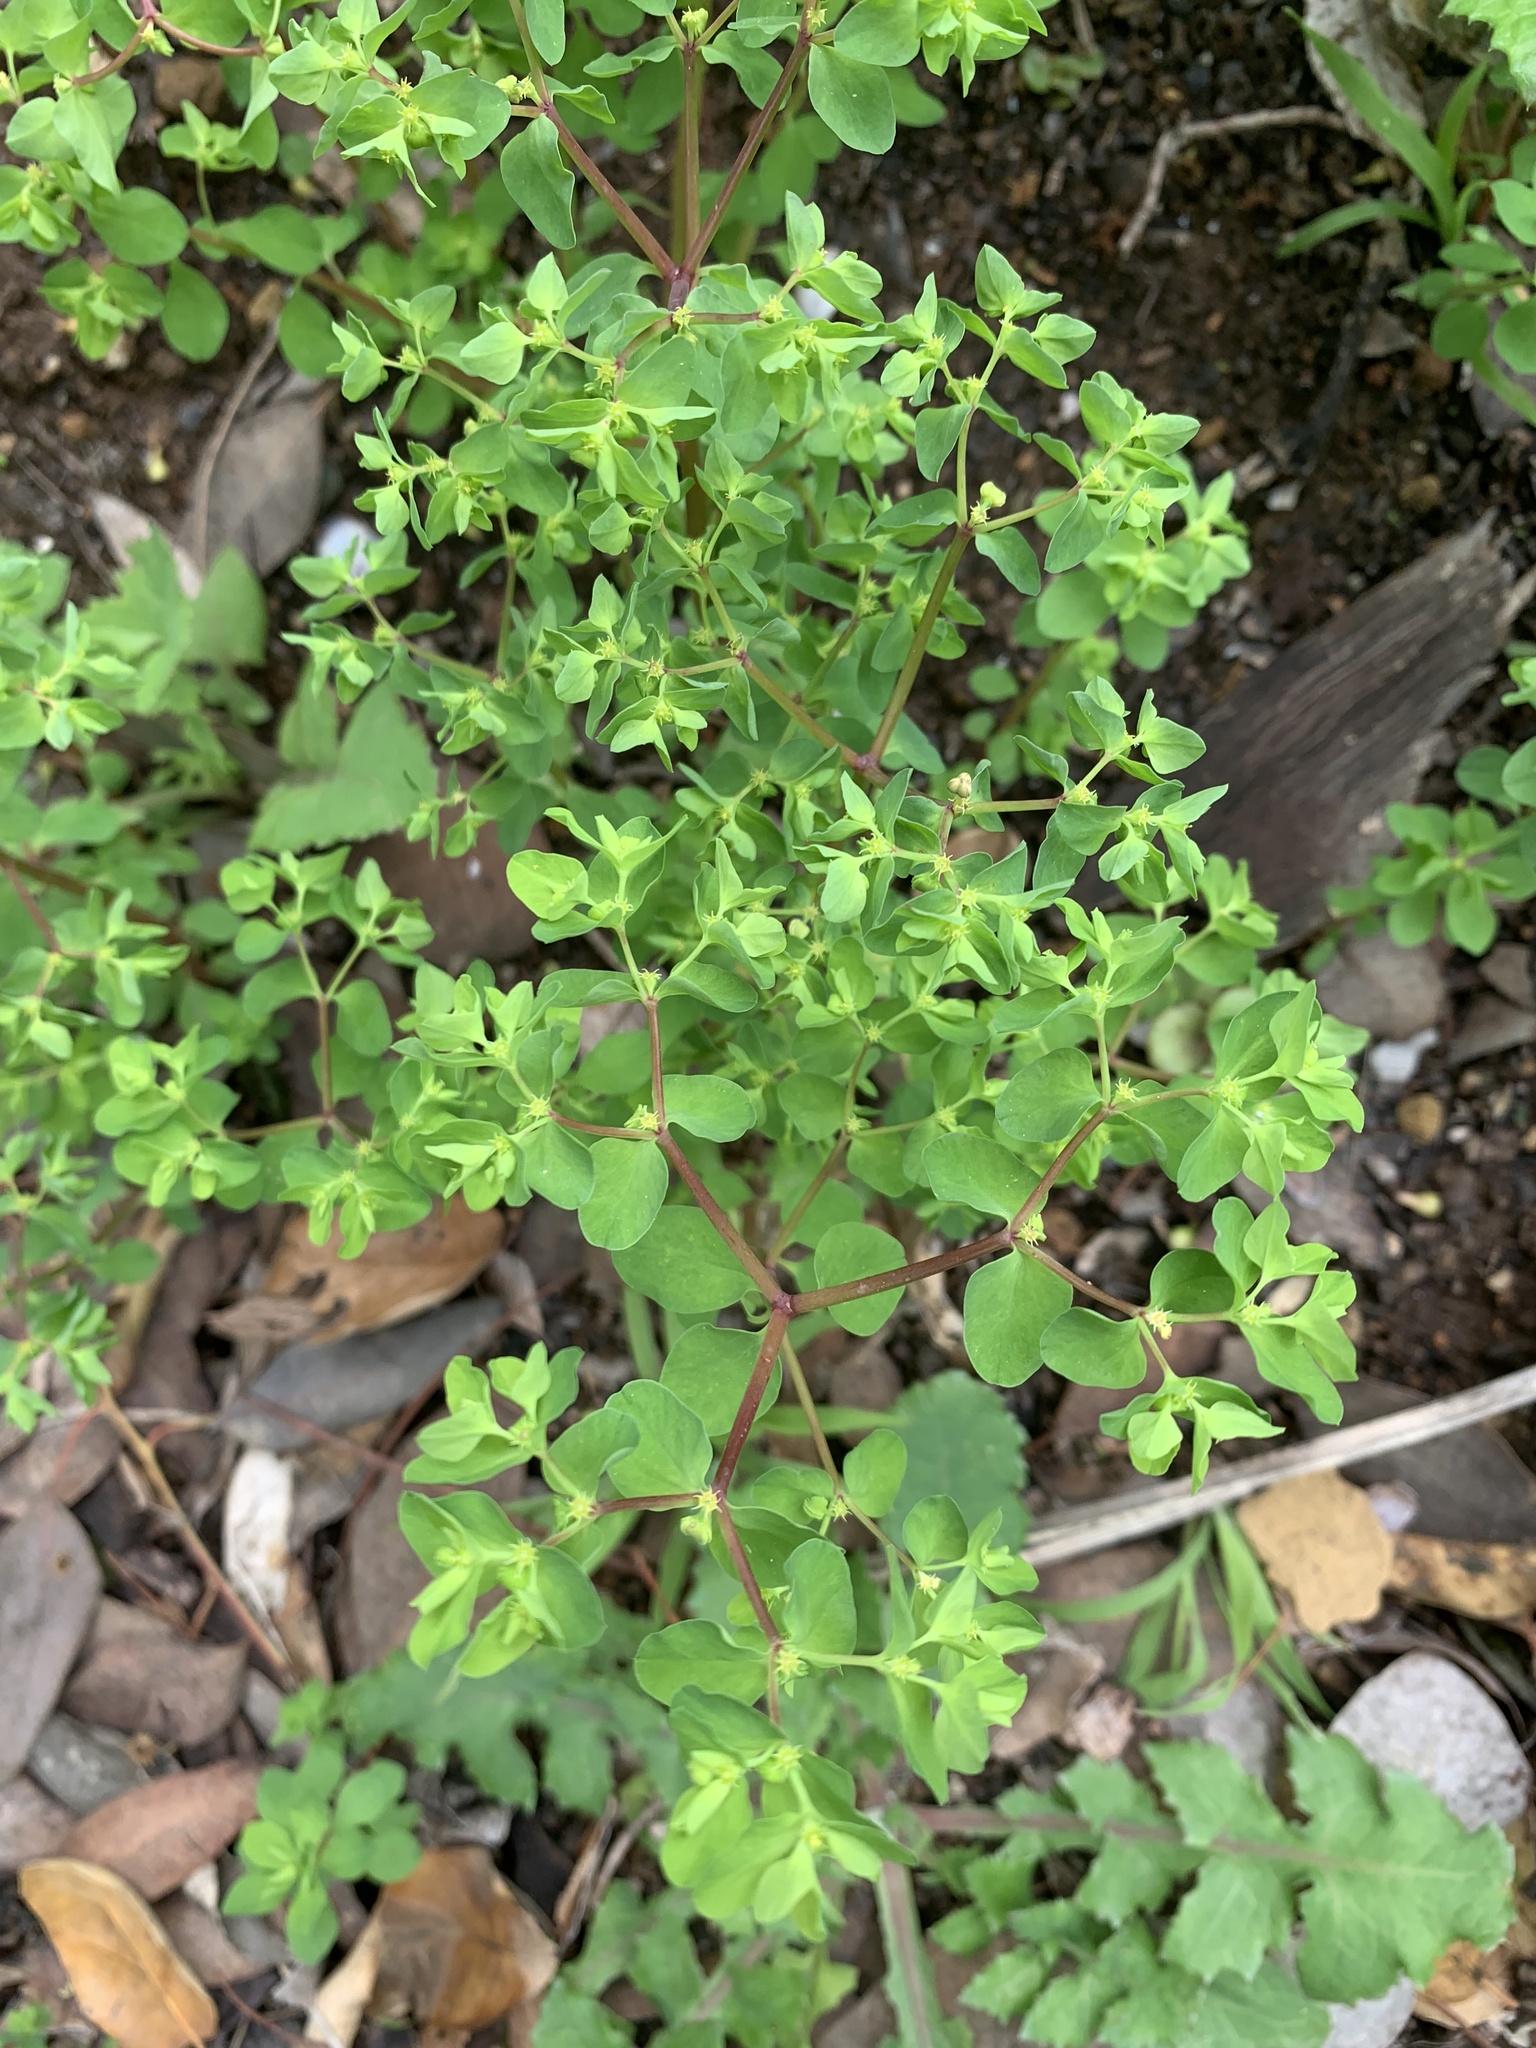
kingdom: Plantae
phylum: Tracheophyta
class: Magnoliopsida
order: Malpighiales
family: Euphorbiaceae
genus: Euphorbia
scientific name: Euphorbia peplus
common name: Petty spurge
